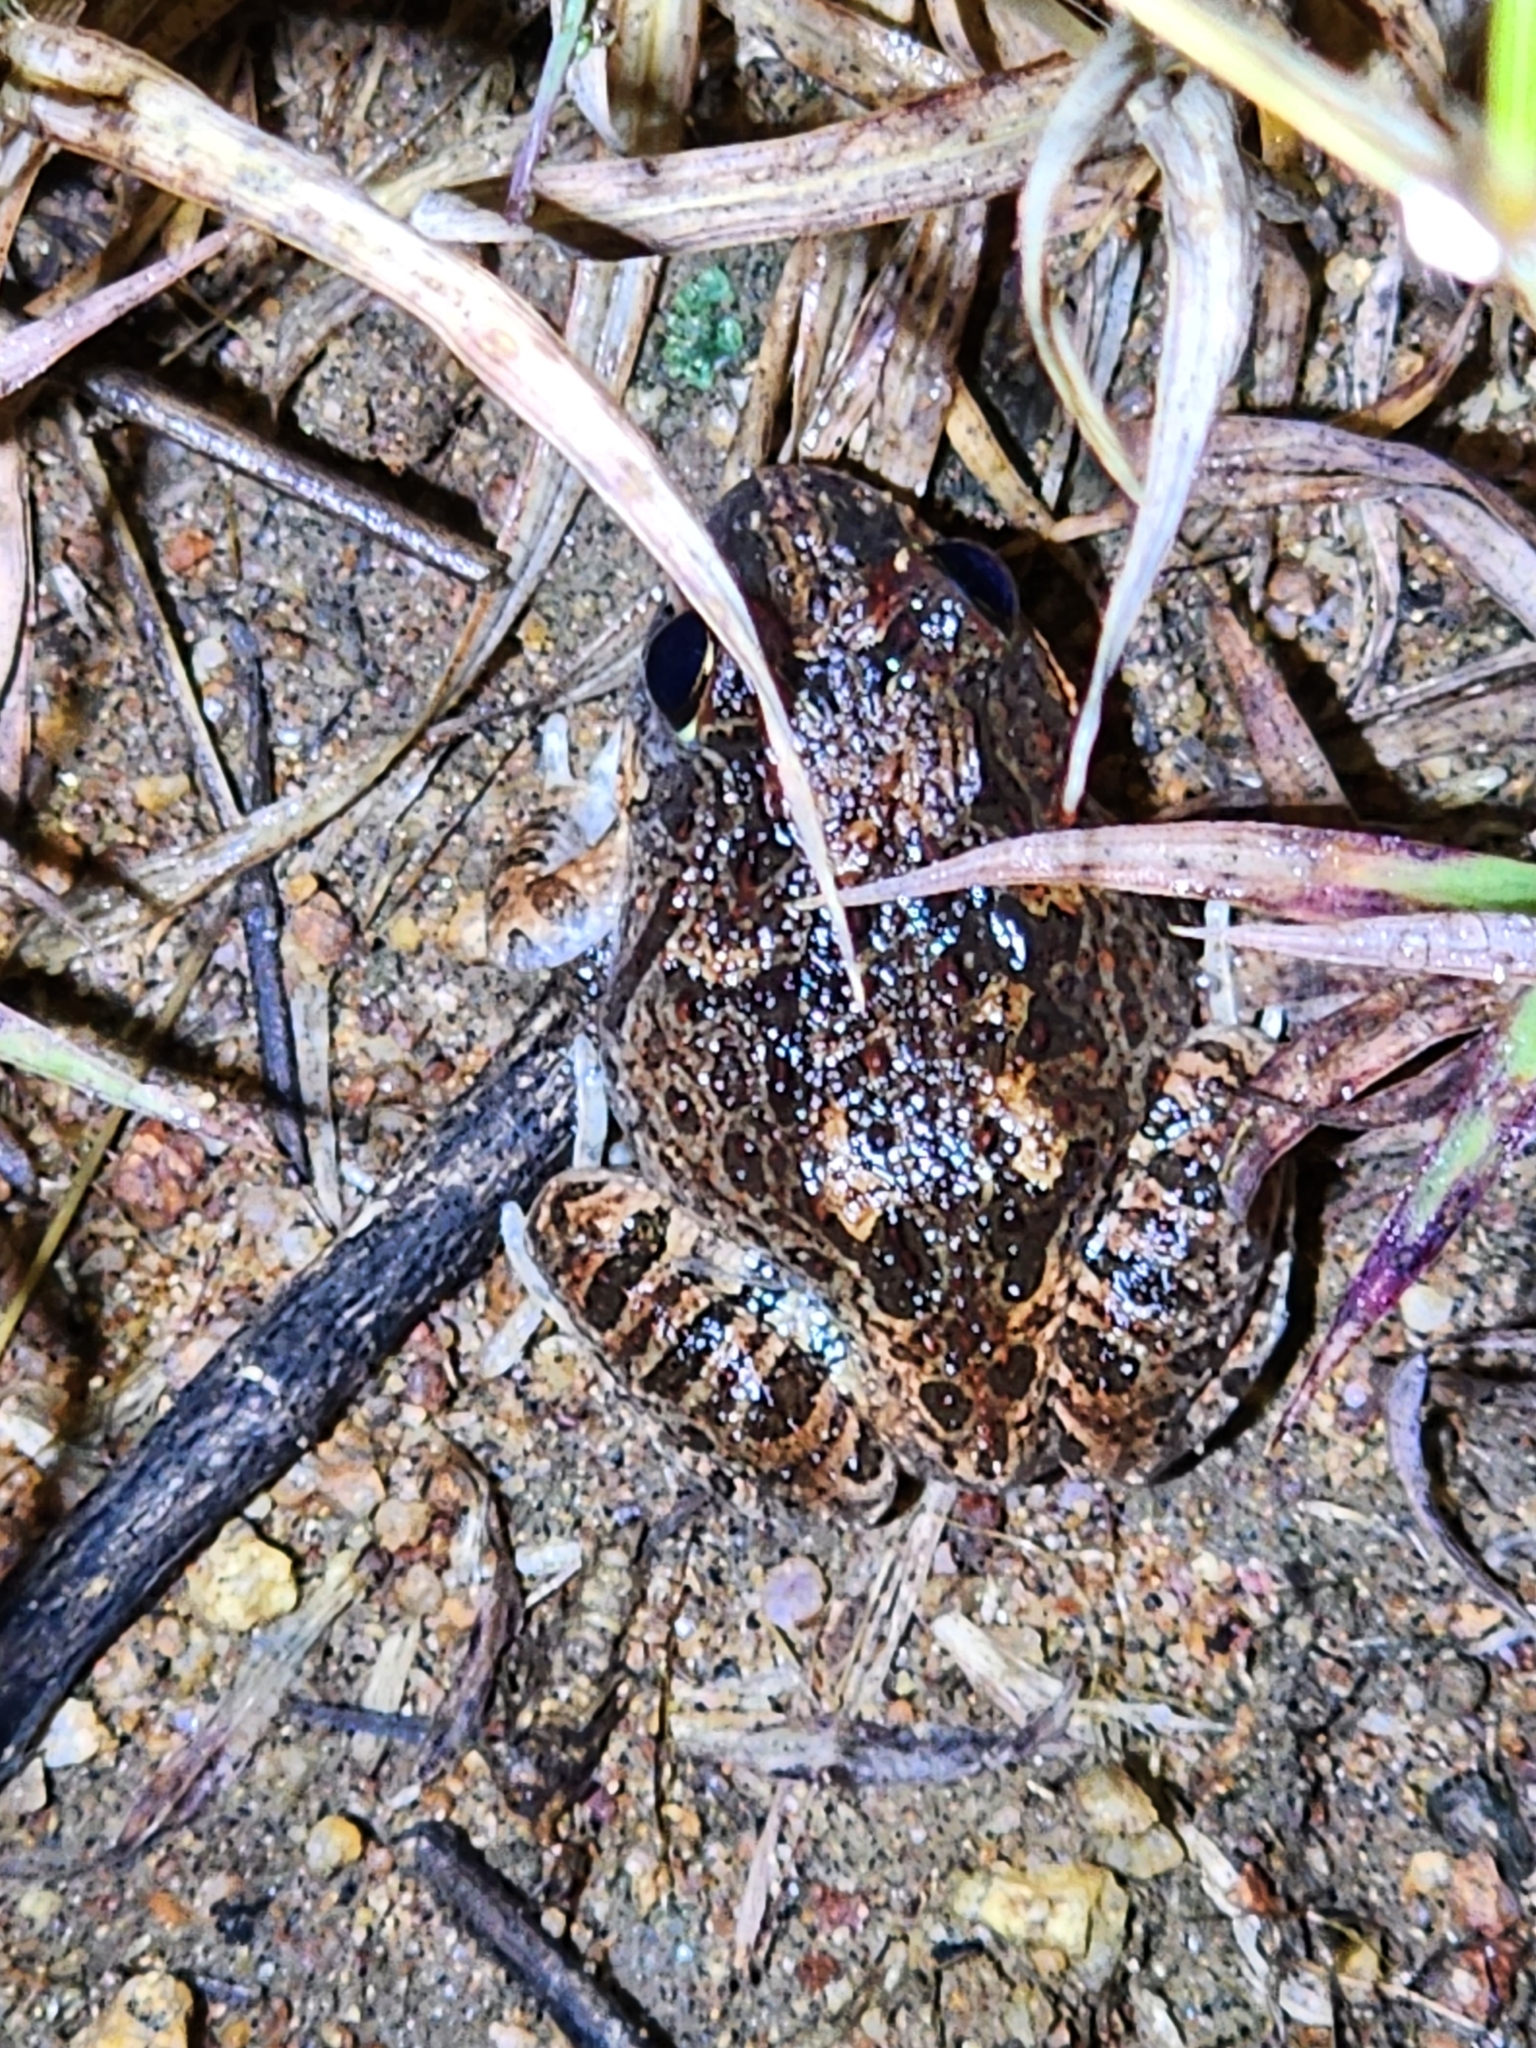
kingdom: Animalia
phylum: Chordata
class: Amphibia
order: Anura
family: Limnodynastidae
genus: Platyplectrum
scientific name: Platyplectrum ornatum
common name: Ornate burrowing frog
